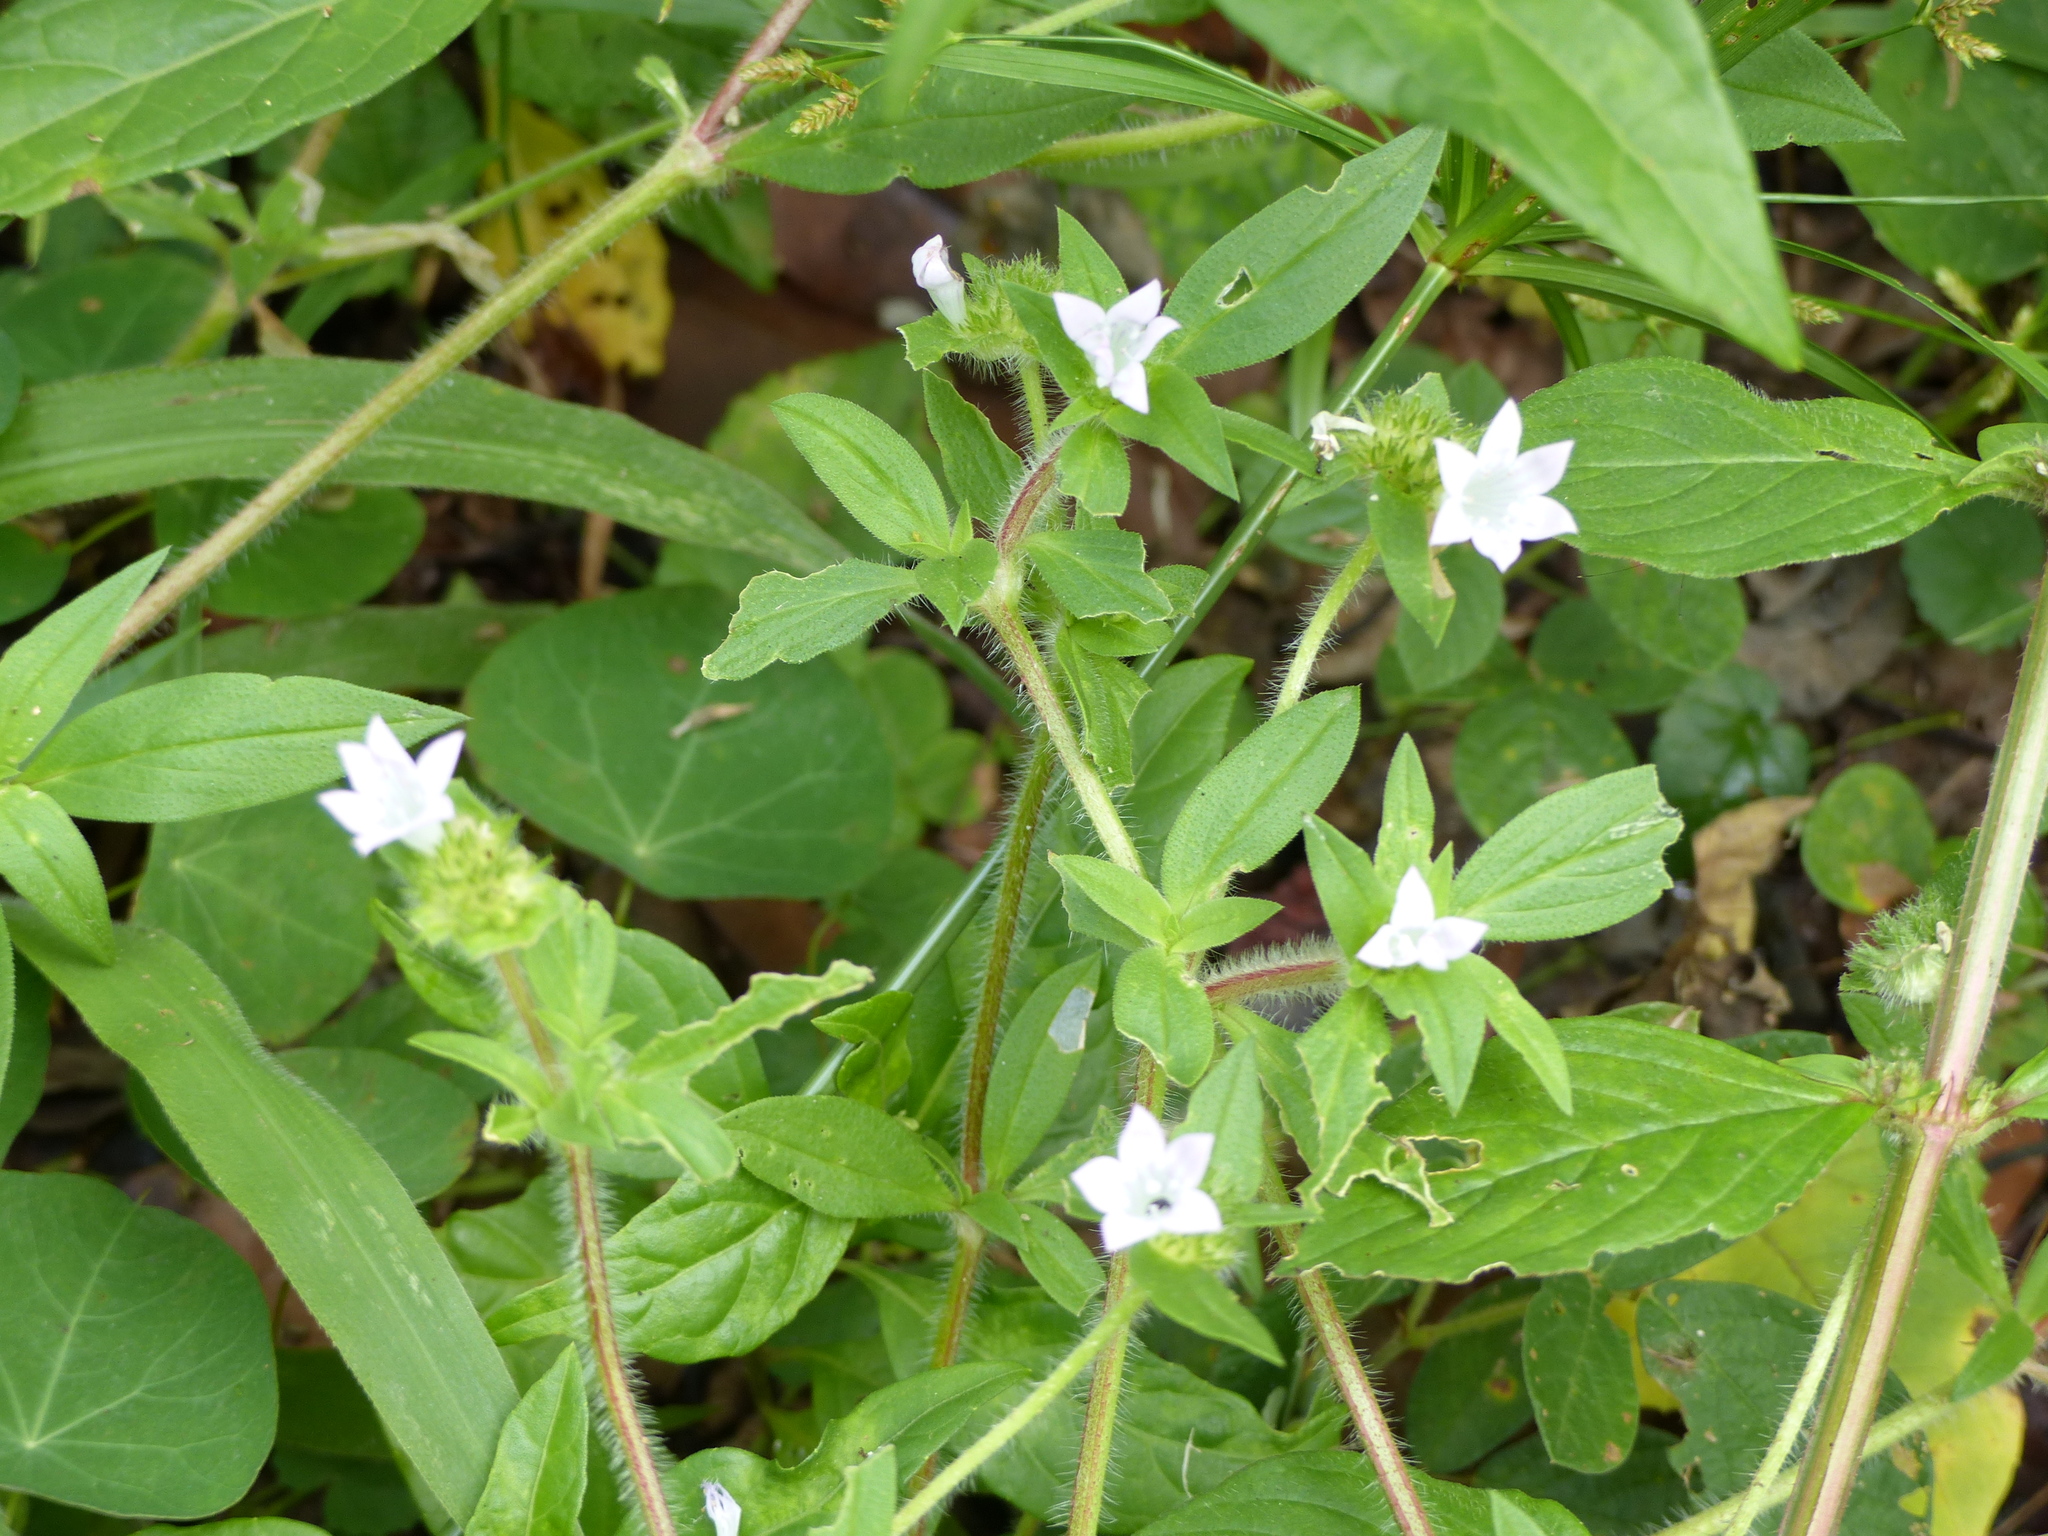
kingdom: Plantae
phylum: Tracheophyta
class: Magnoliopsida
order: Gentianales
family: Rubiaceae
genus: Richardia
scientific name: Richardia grandiflora
